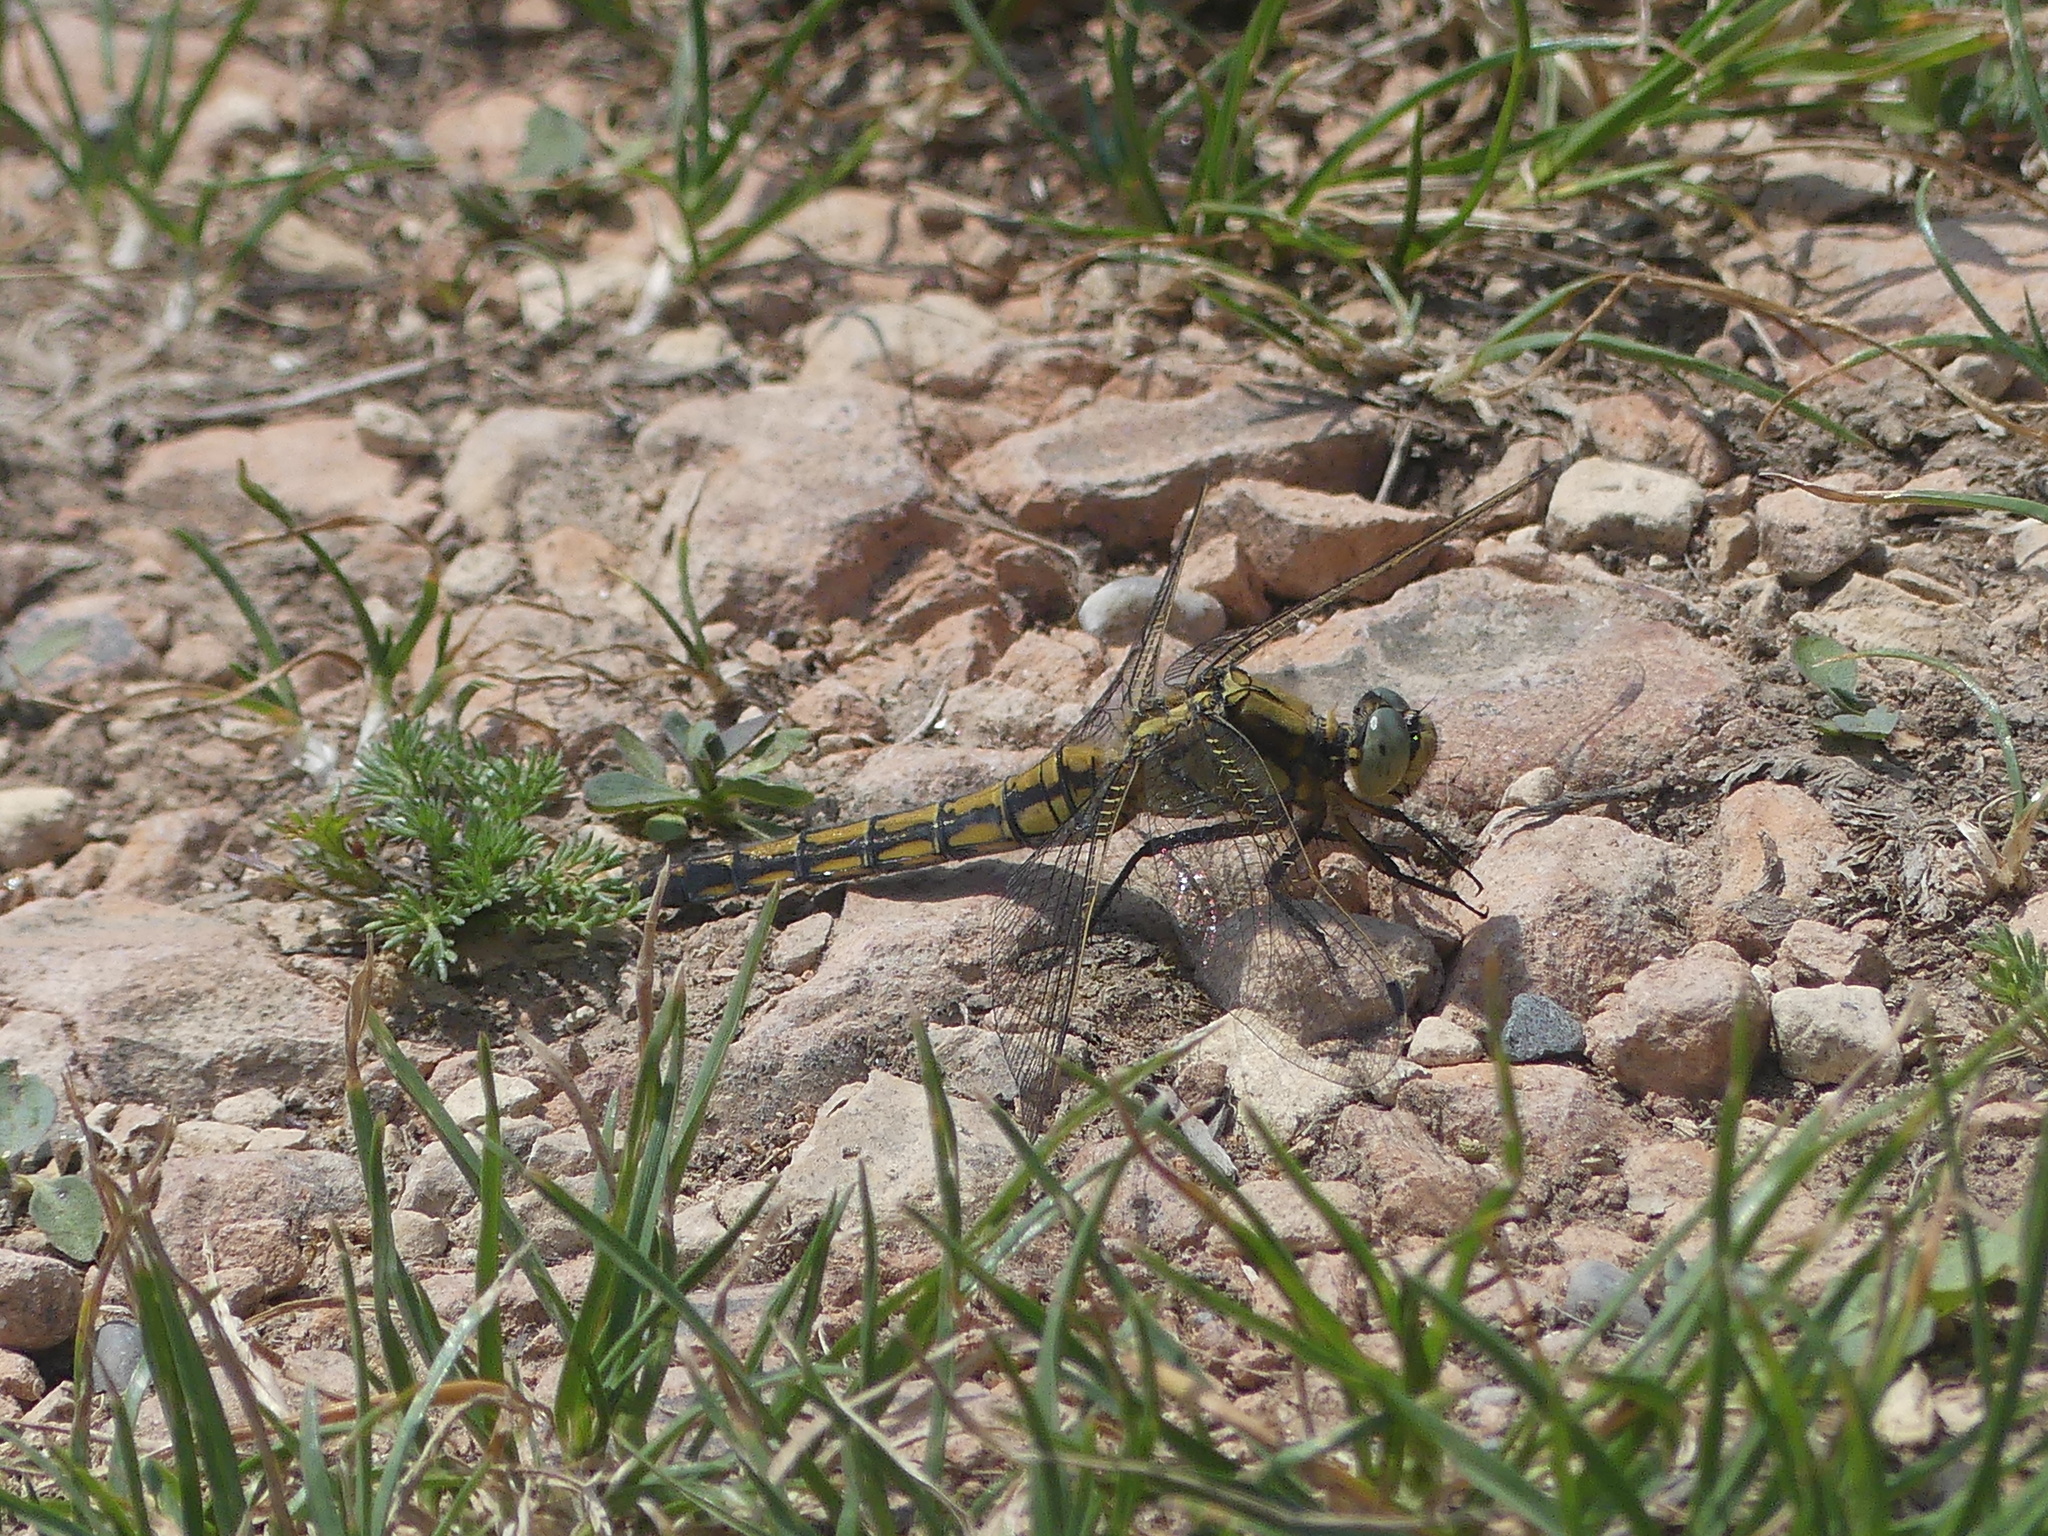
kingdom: Animalia
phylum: Arthropoda
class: Insecta
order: Odonata
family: Libellulidae
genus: Orthetrum
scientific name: Orthetrum cancellatum
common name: Black-tailed skimmer
